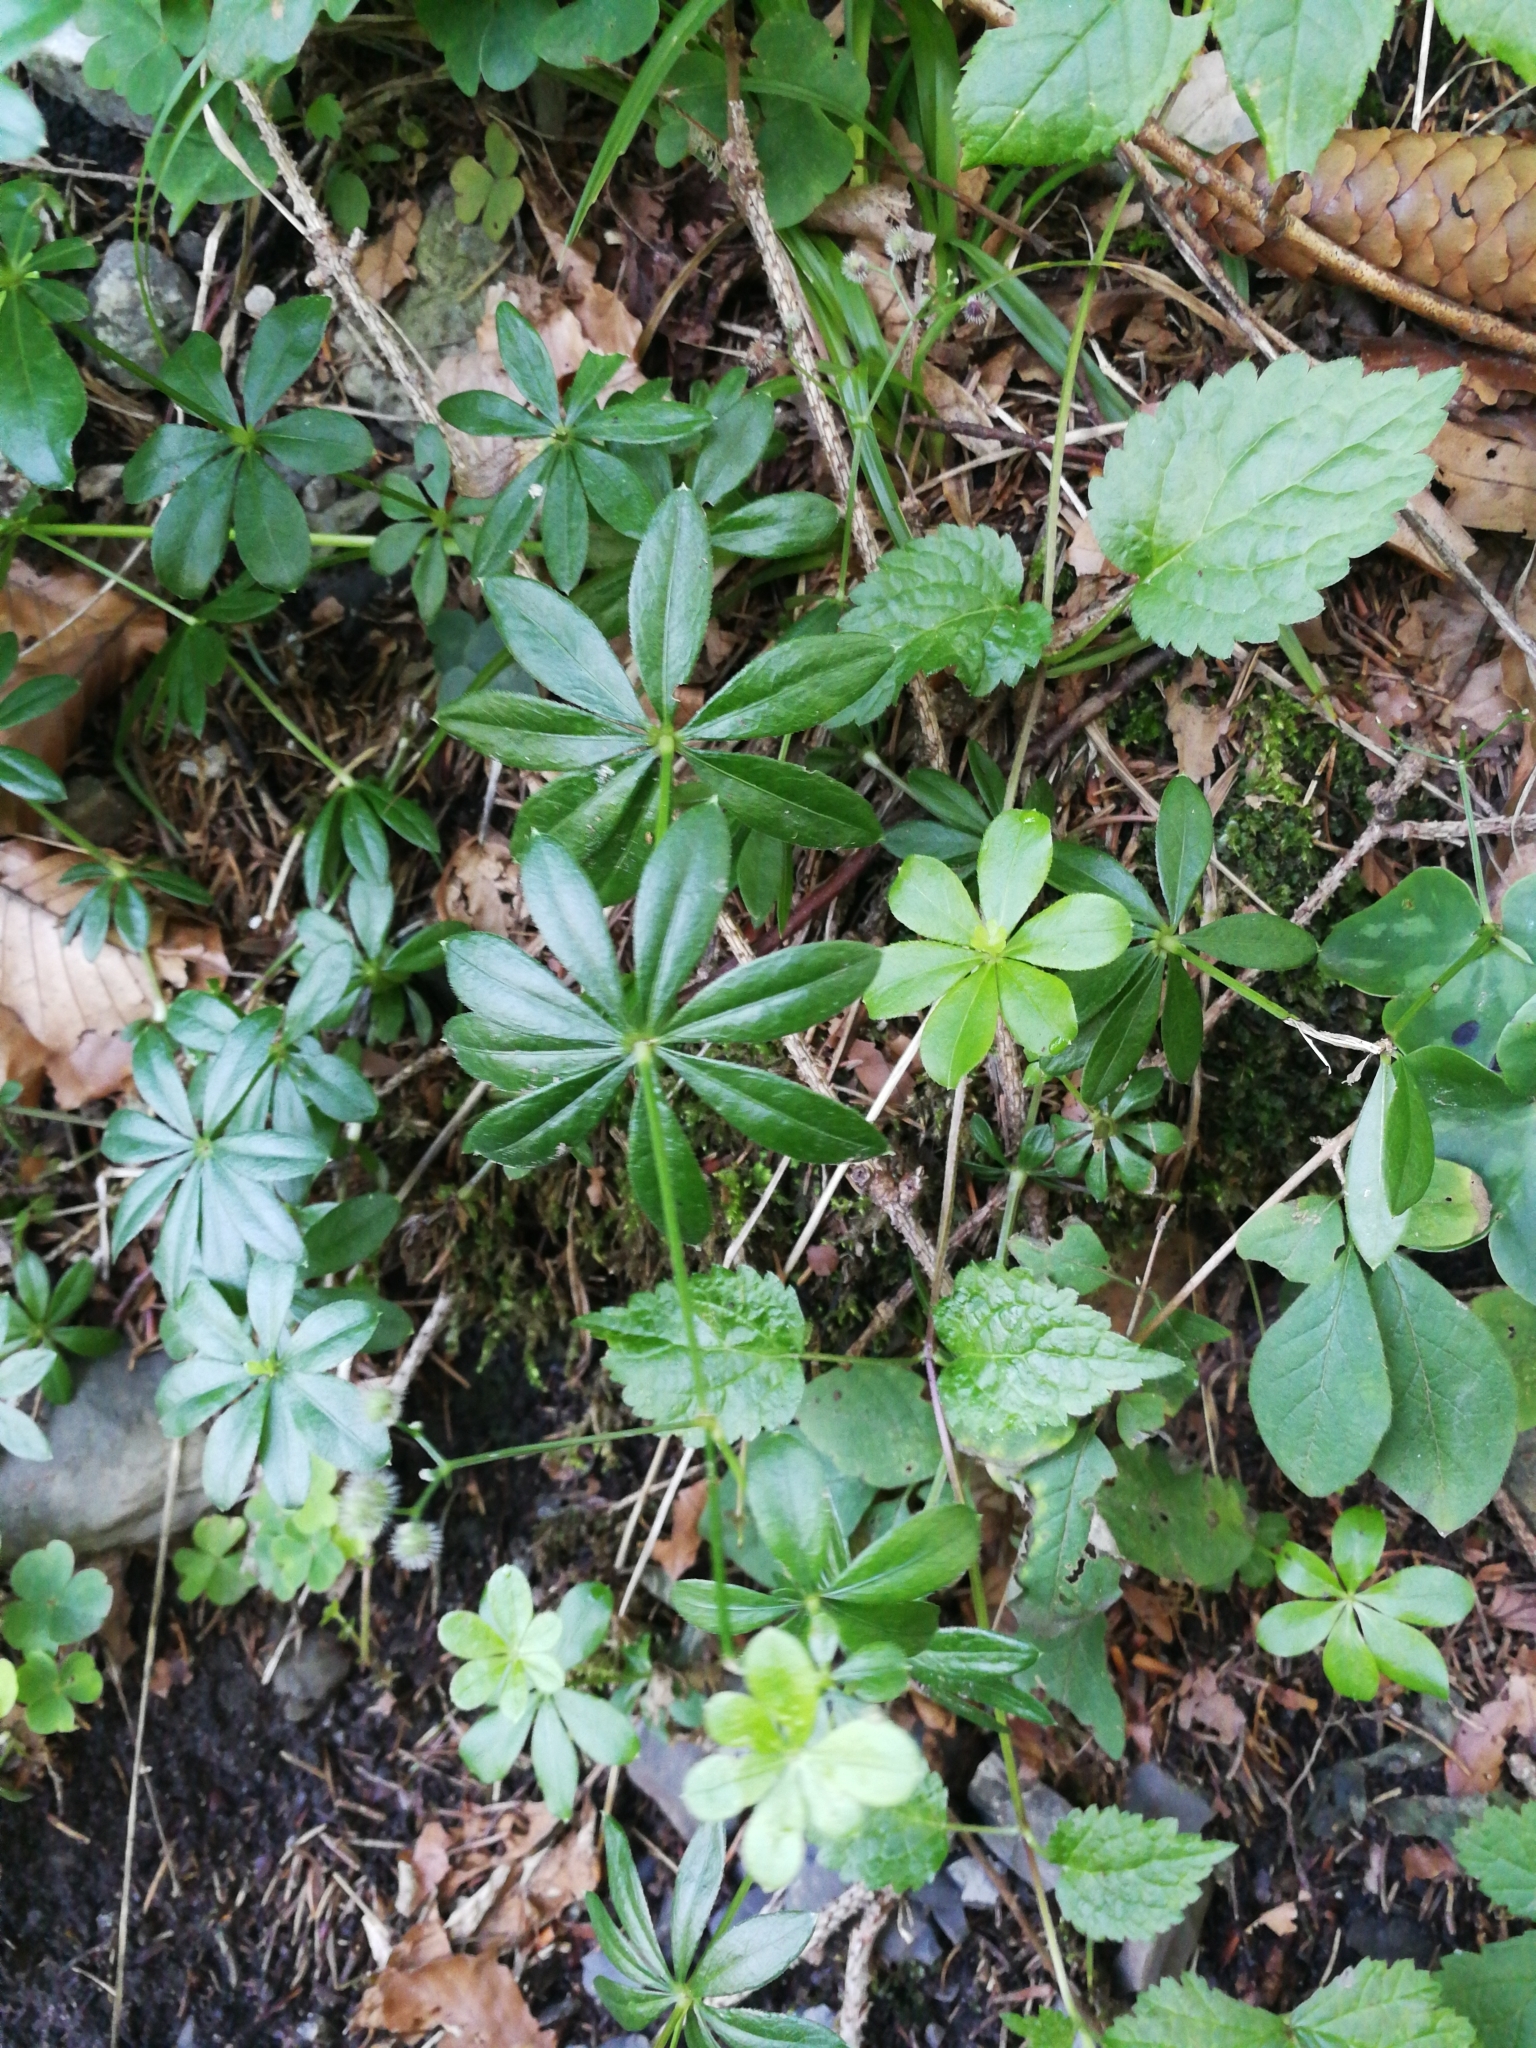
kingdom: Plantae
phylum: Tracheophyta
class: Magnoliopsida
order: Gentianales
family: Rubiaceae
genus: Galium
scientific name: Galium odoratum
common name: Sweet woodruff
